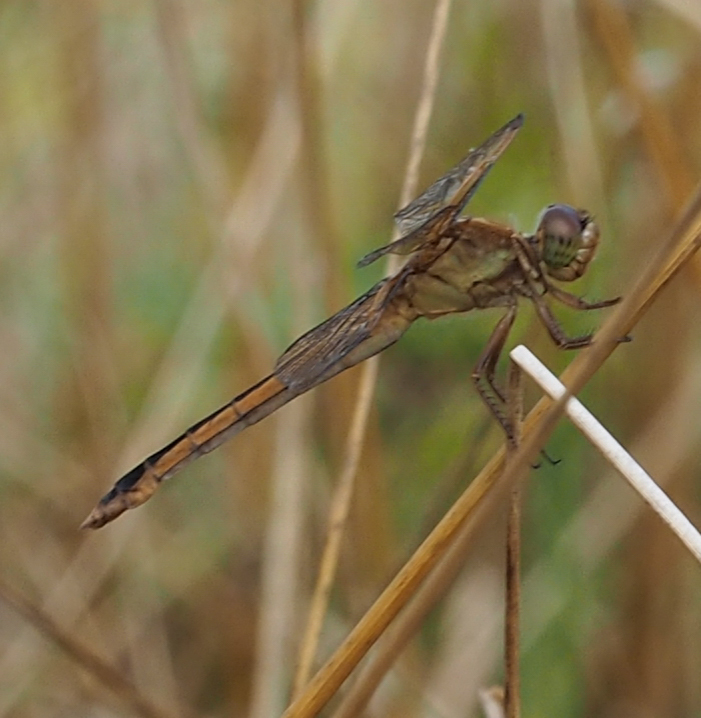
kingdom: Animalia
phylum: Arthropoda
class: Insecta
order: Odonata
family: Libellulidae
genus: Libellula
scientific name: Libellula needhami
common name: Needham's skimmer
